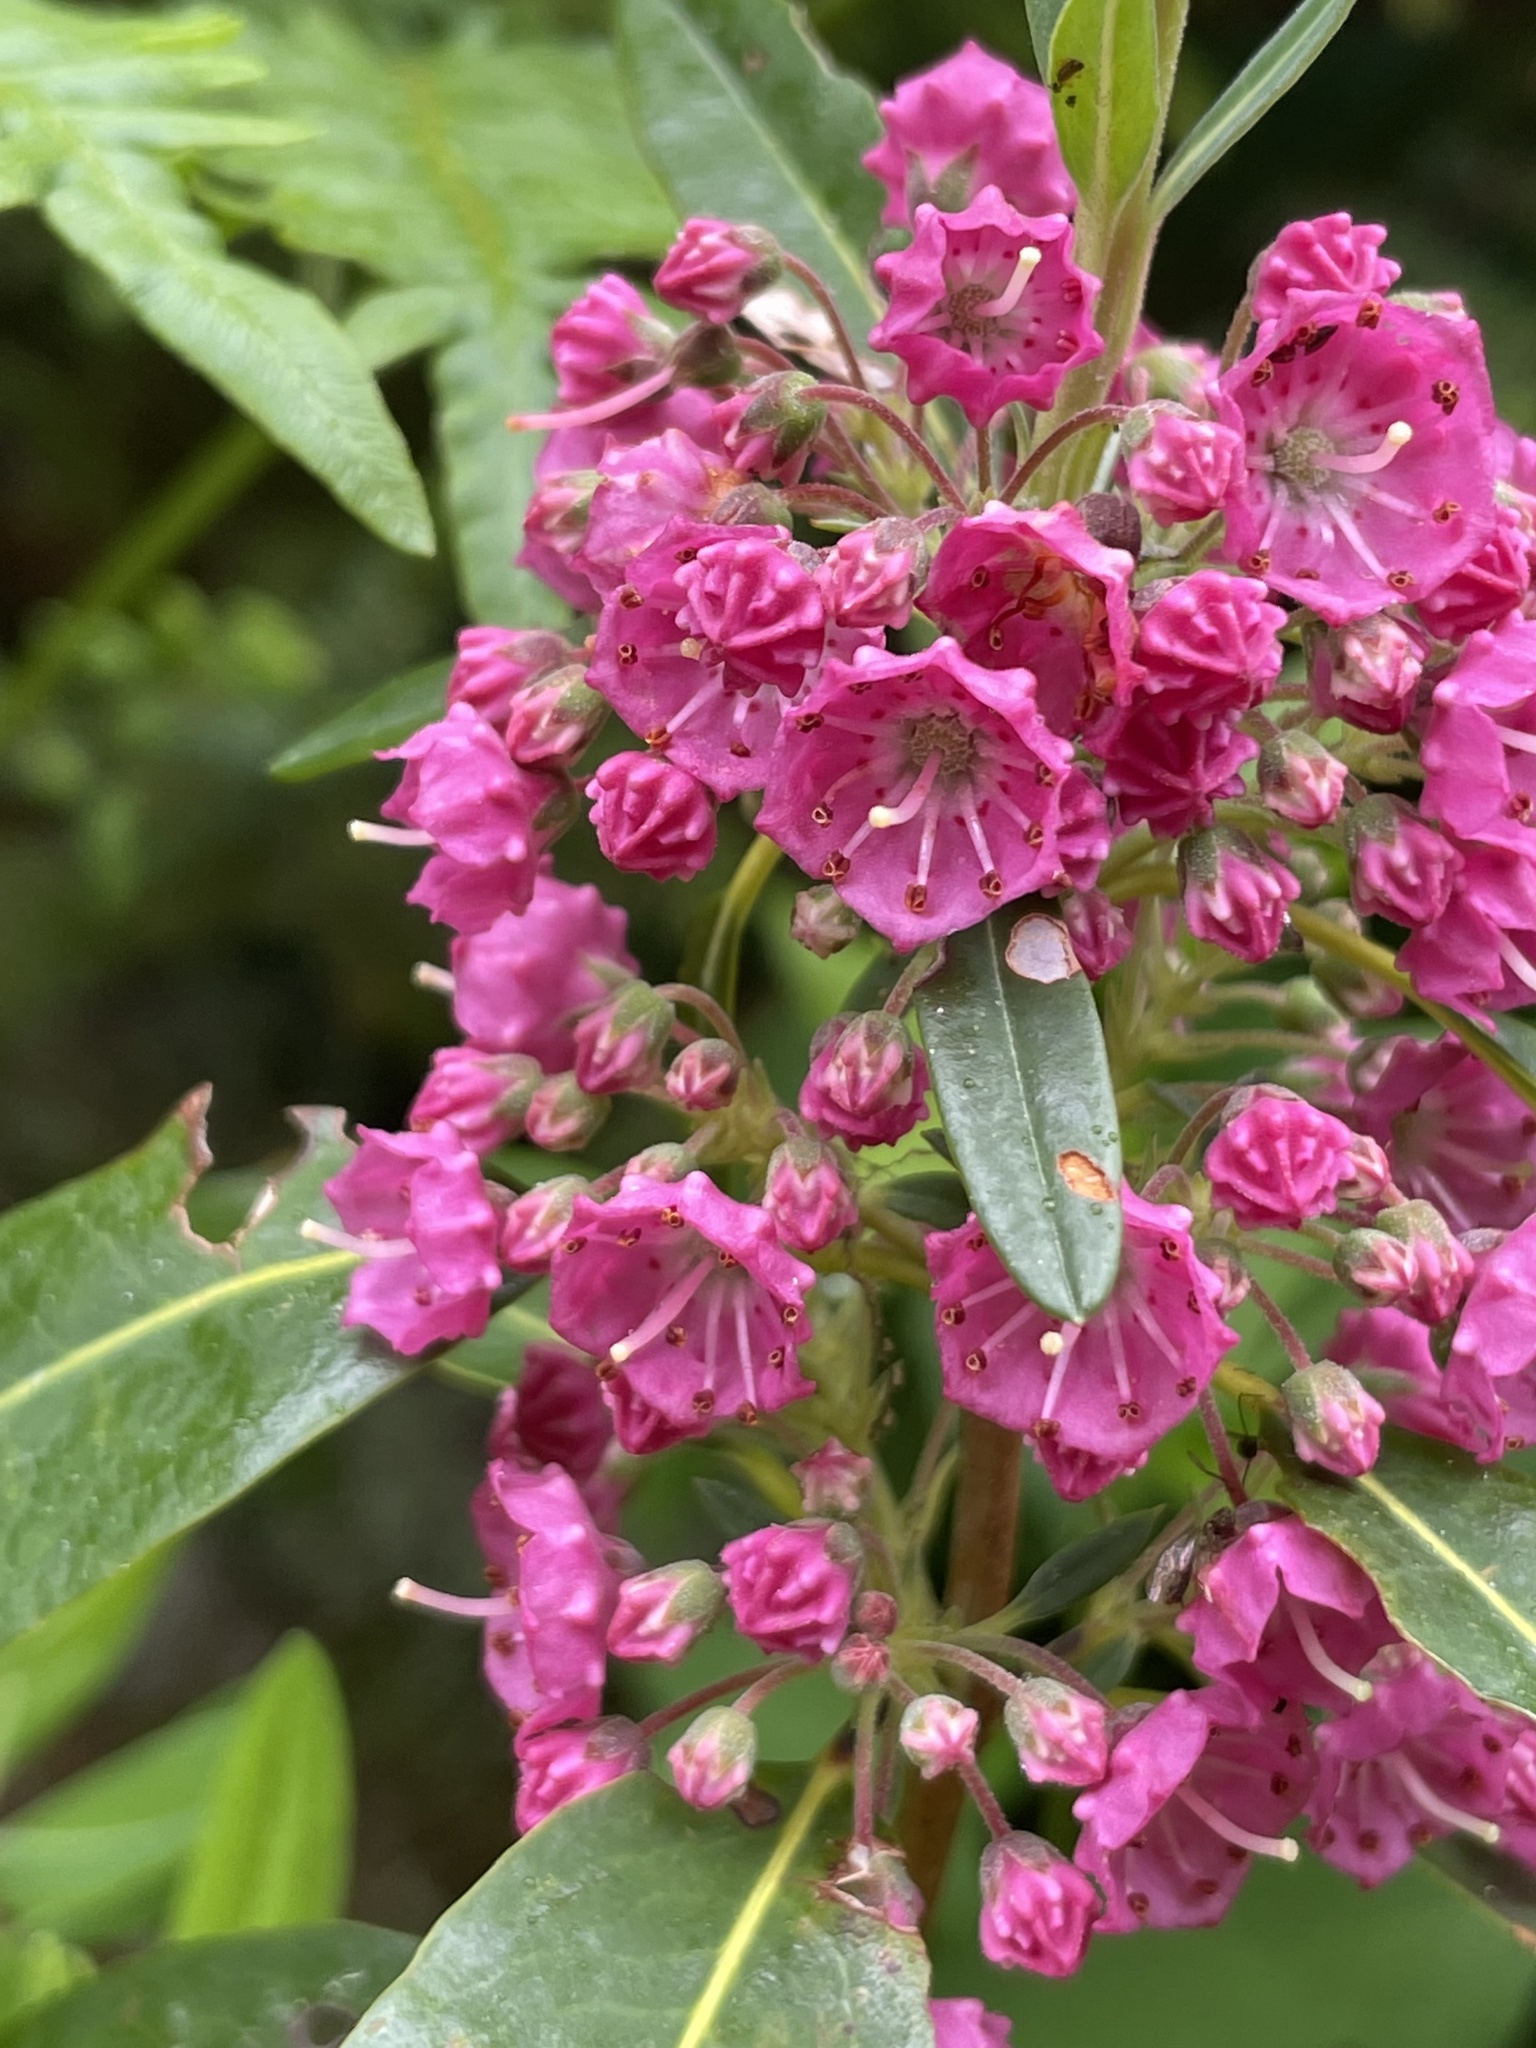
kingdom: Plantae
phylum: Tracheophyta
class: Magnoliopsida
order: Ericales
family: Ericaceae
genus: Kalmia
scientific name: Kalmia angustifolia
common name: Sheep-laurel
